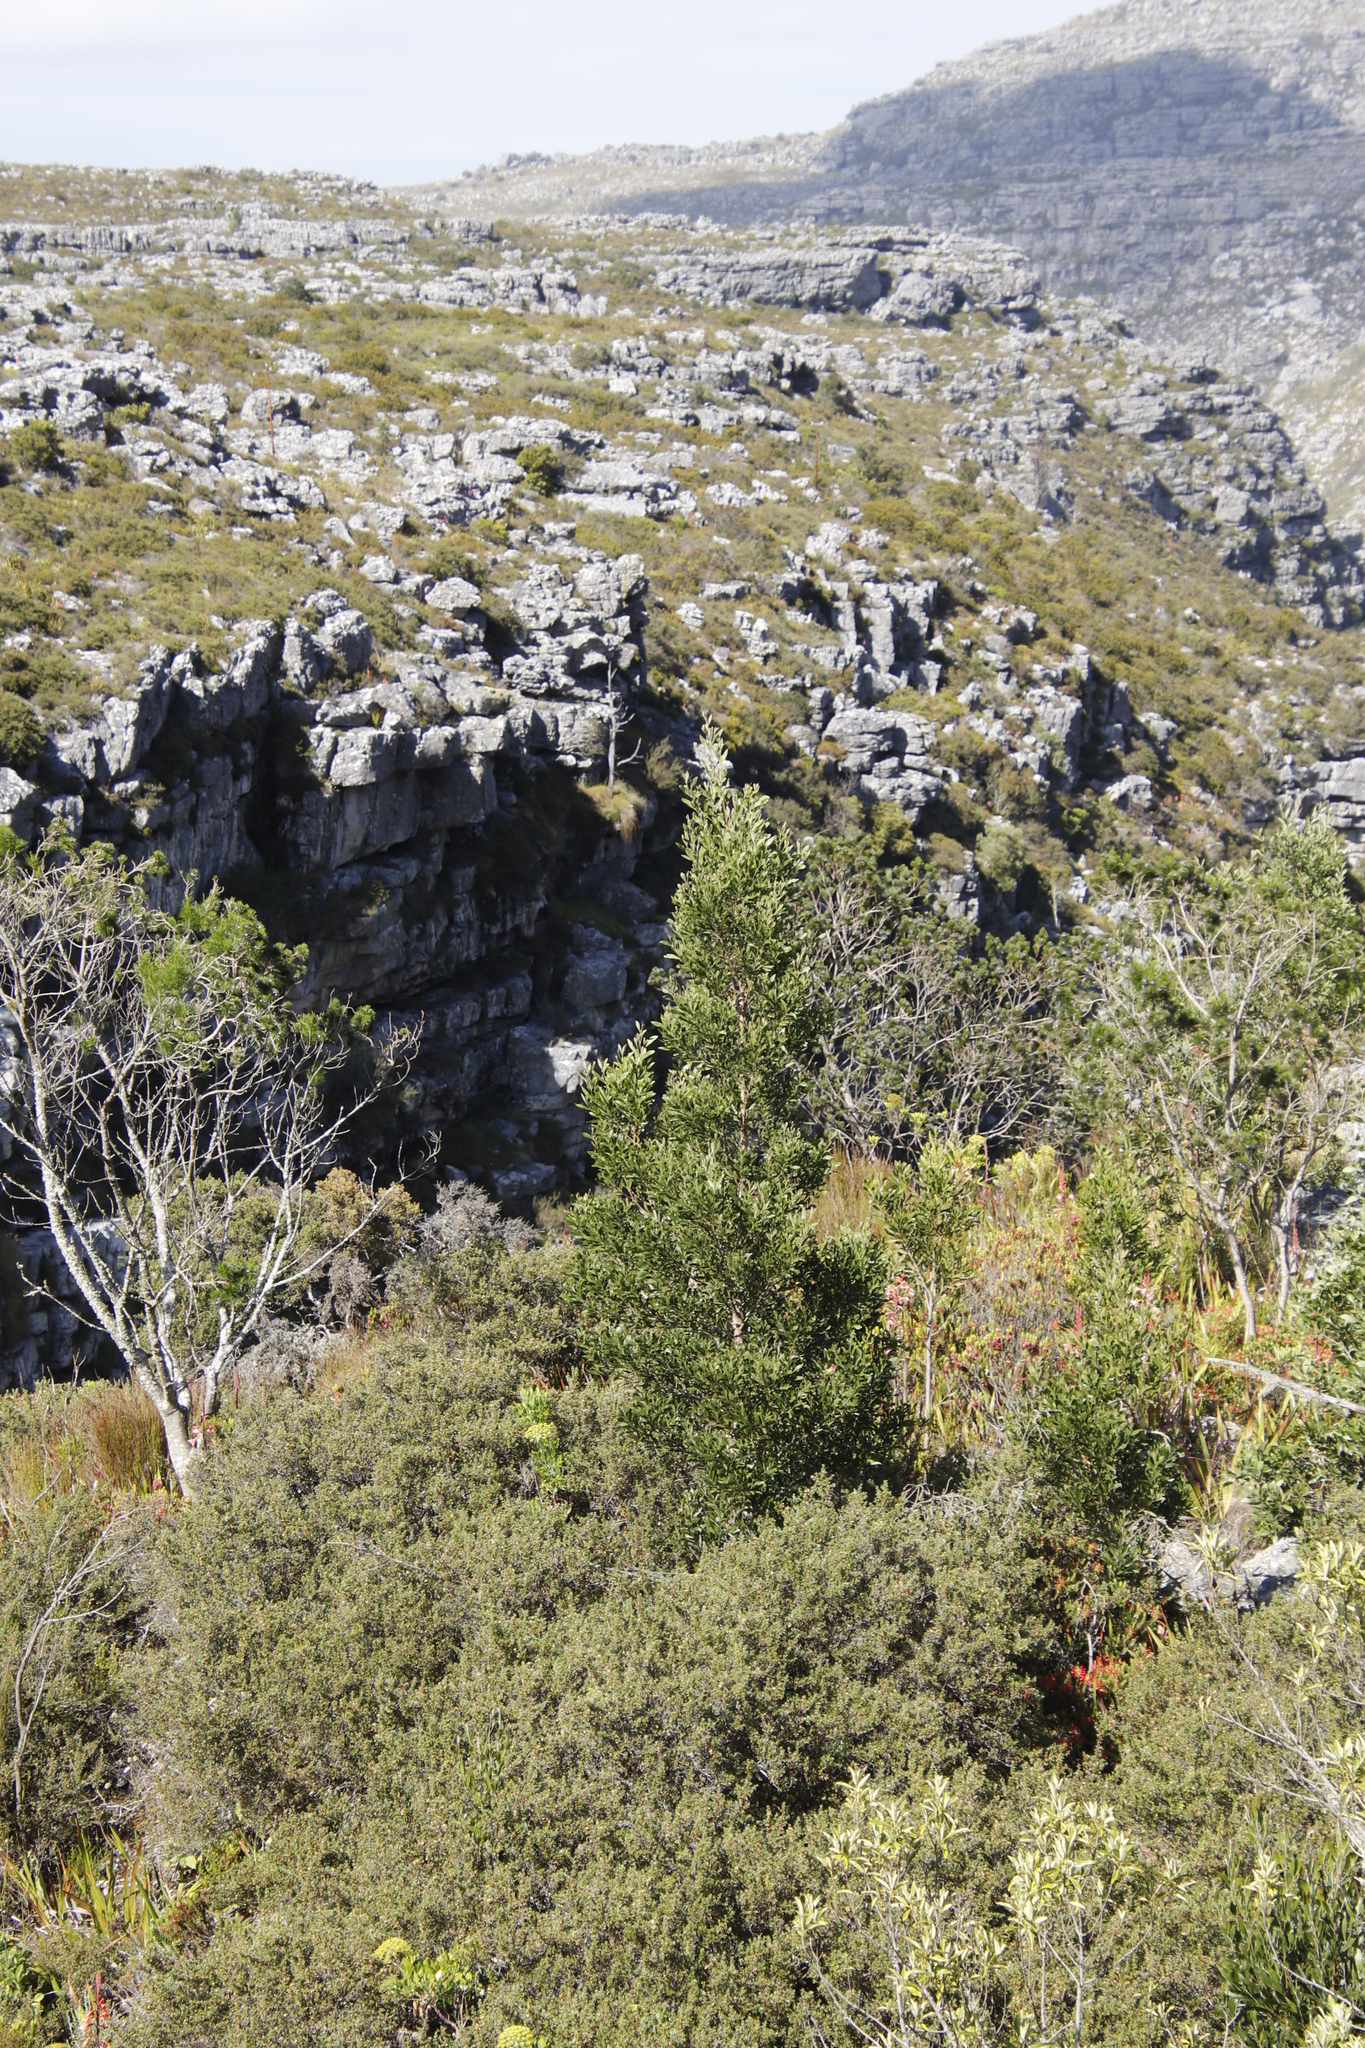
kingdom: Plantae
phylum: Tracheophyta
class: Magnoliopsida
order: Fabales
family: Fabaceae
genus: Acacia
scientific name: Acacia melanoxylon
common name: Blackwood
